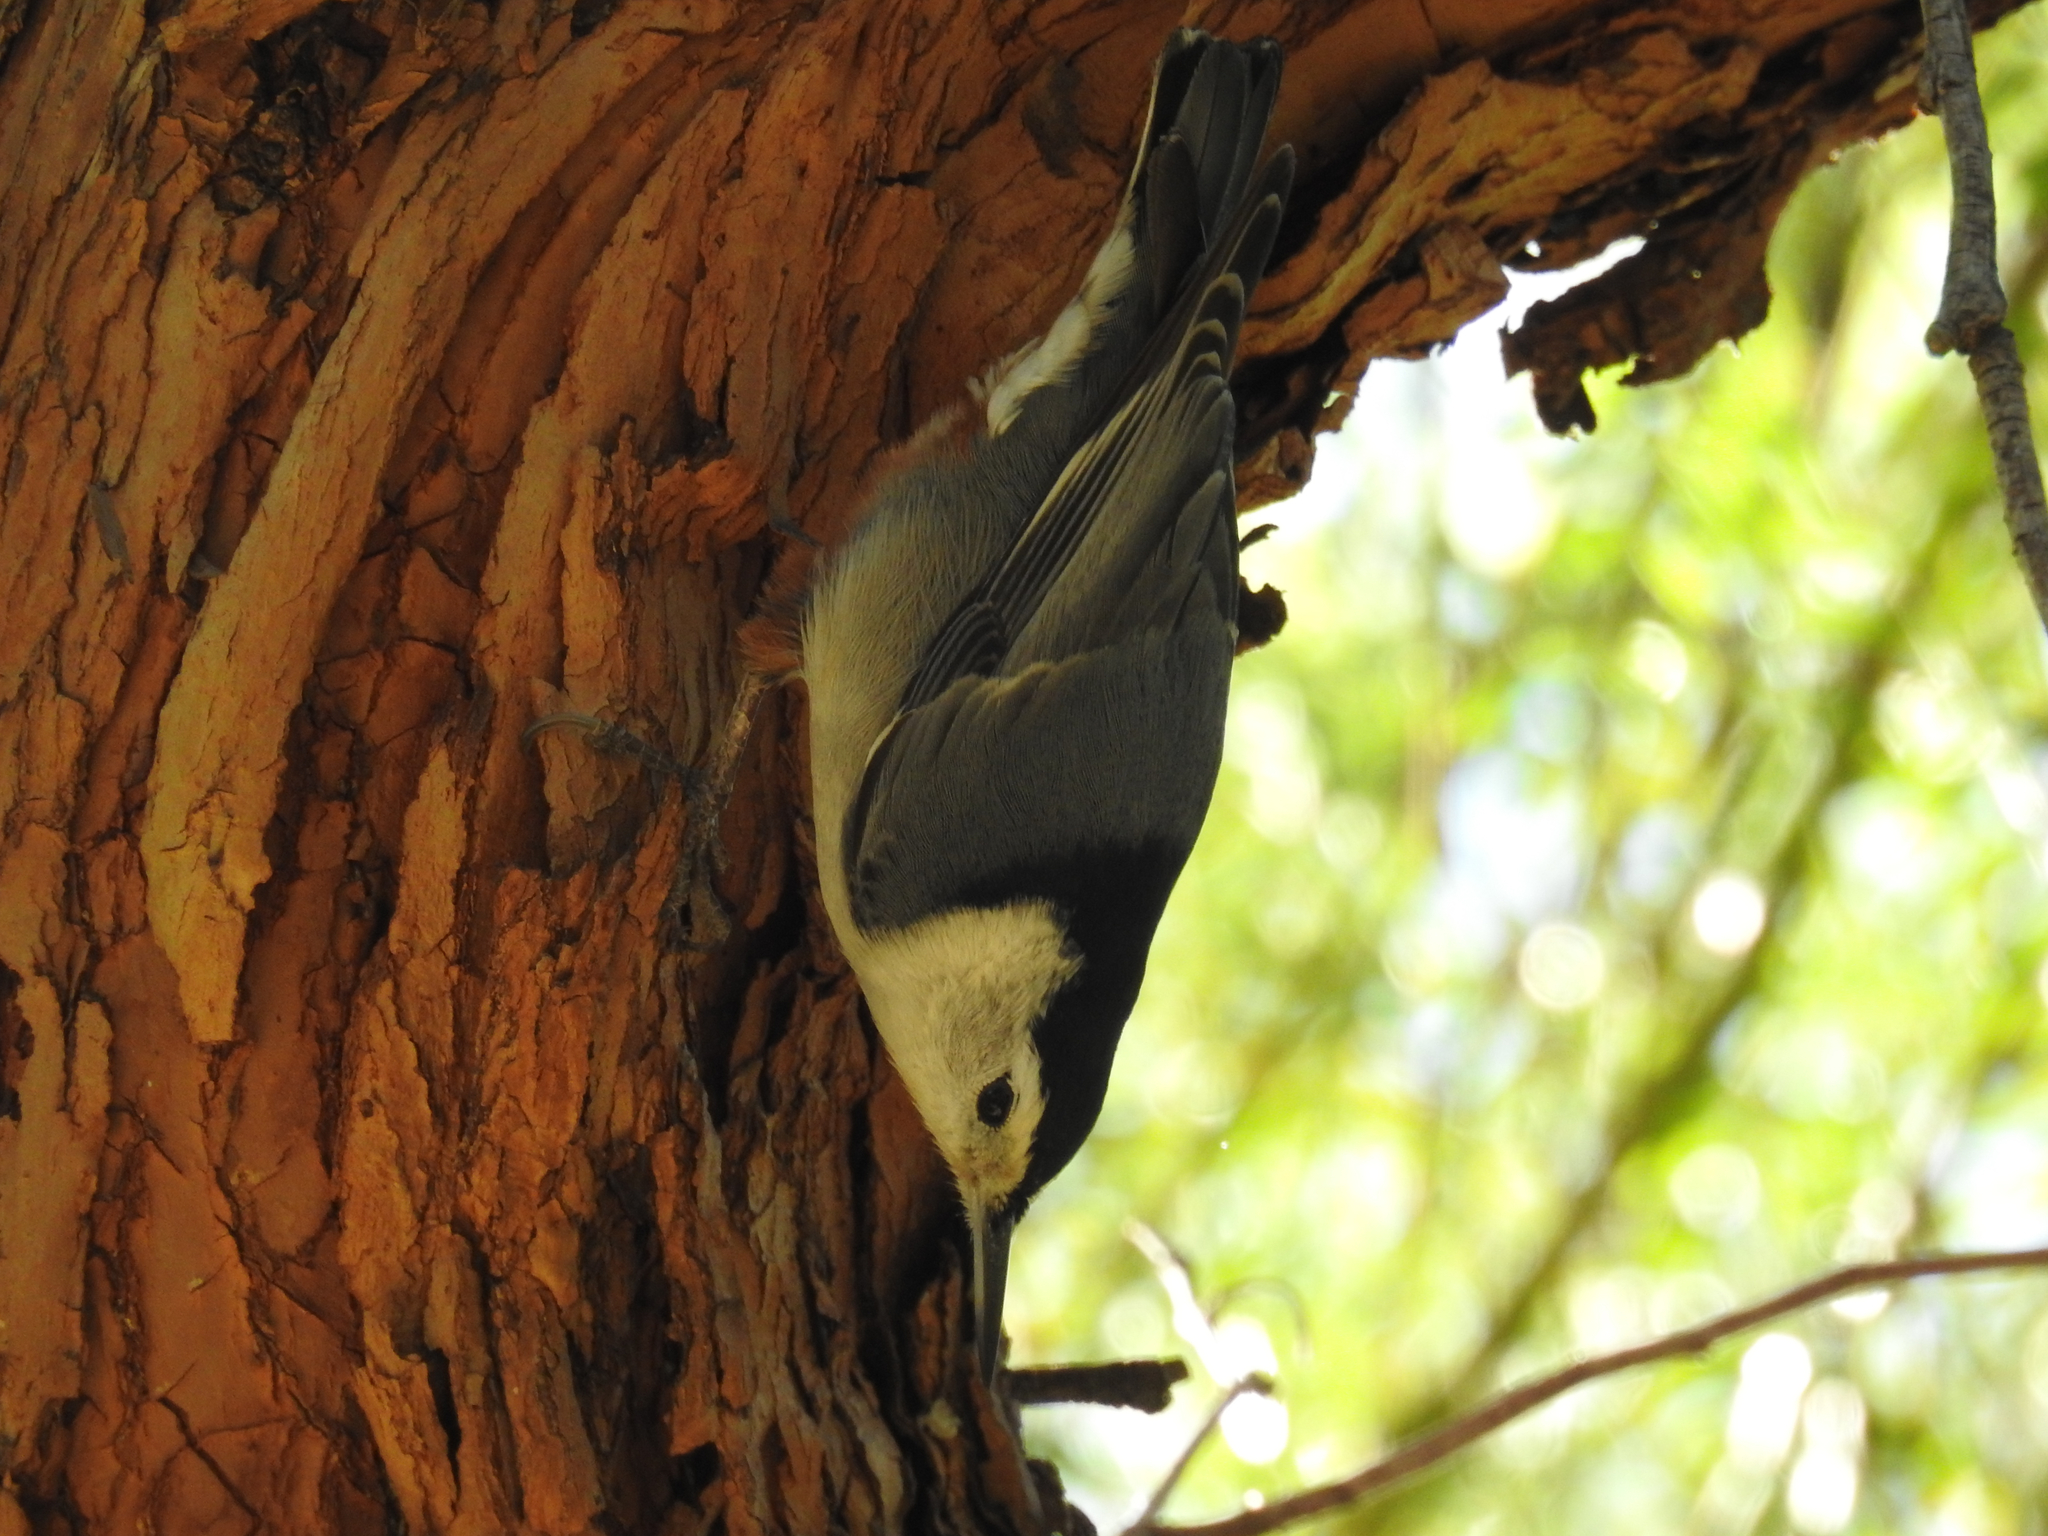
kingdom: Animalia
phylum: Chordata
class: Aves
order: Passeriformes
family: Sittidae
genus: Sitta
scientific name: Sitta carolinensis
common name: White-breasted nuthatch
